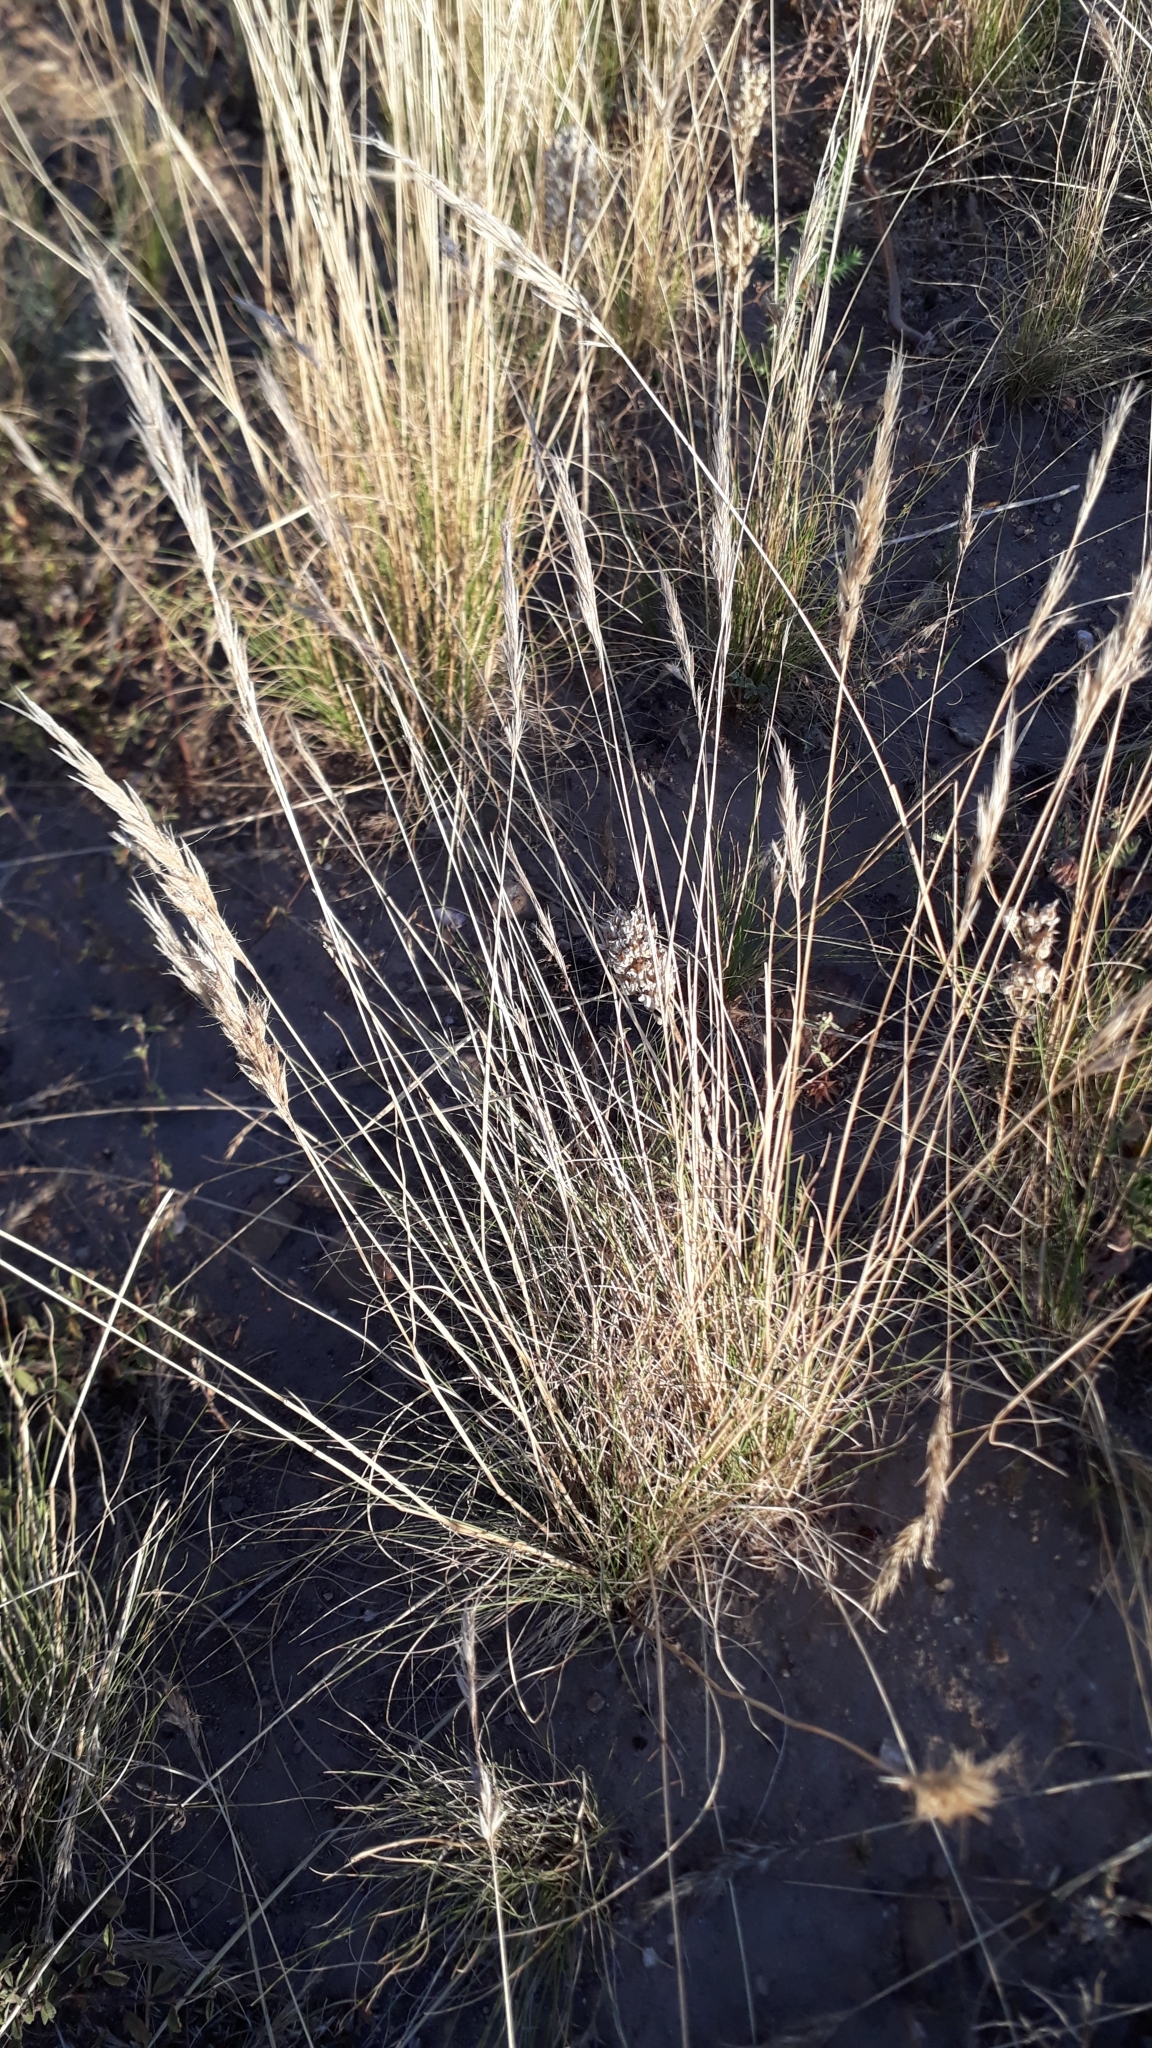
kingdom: Plantae
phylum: Tracheophyta
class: Liliopsida
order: Poales
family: Poaceae
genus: Tenaxia
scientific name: Tenaxia stricta
